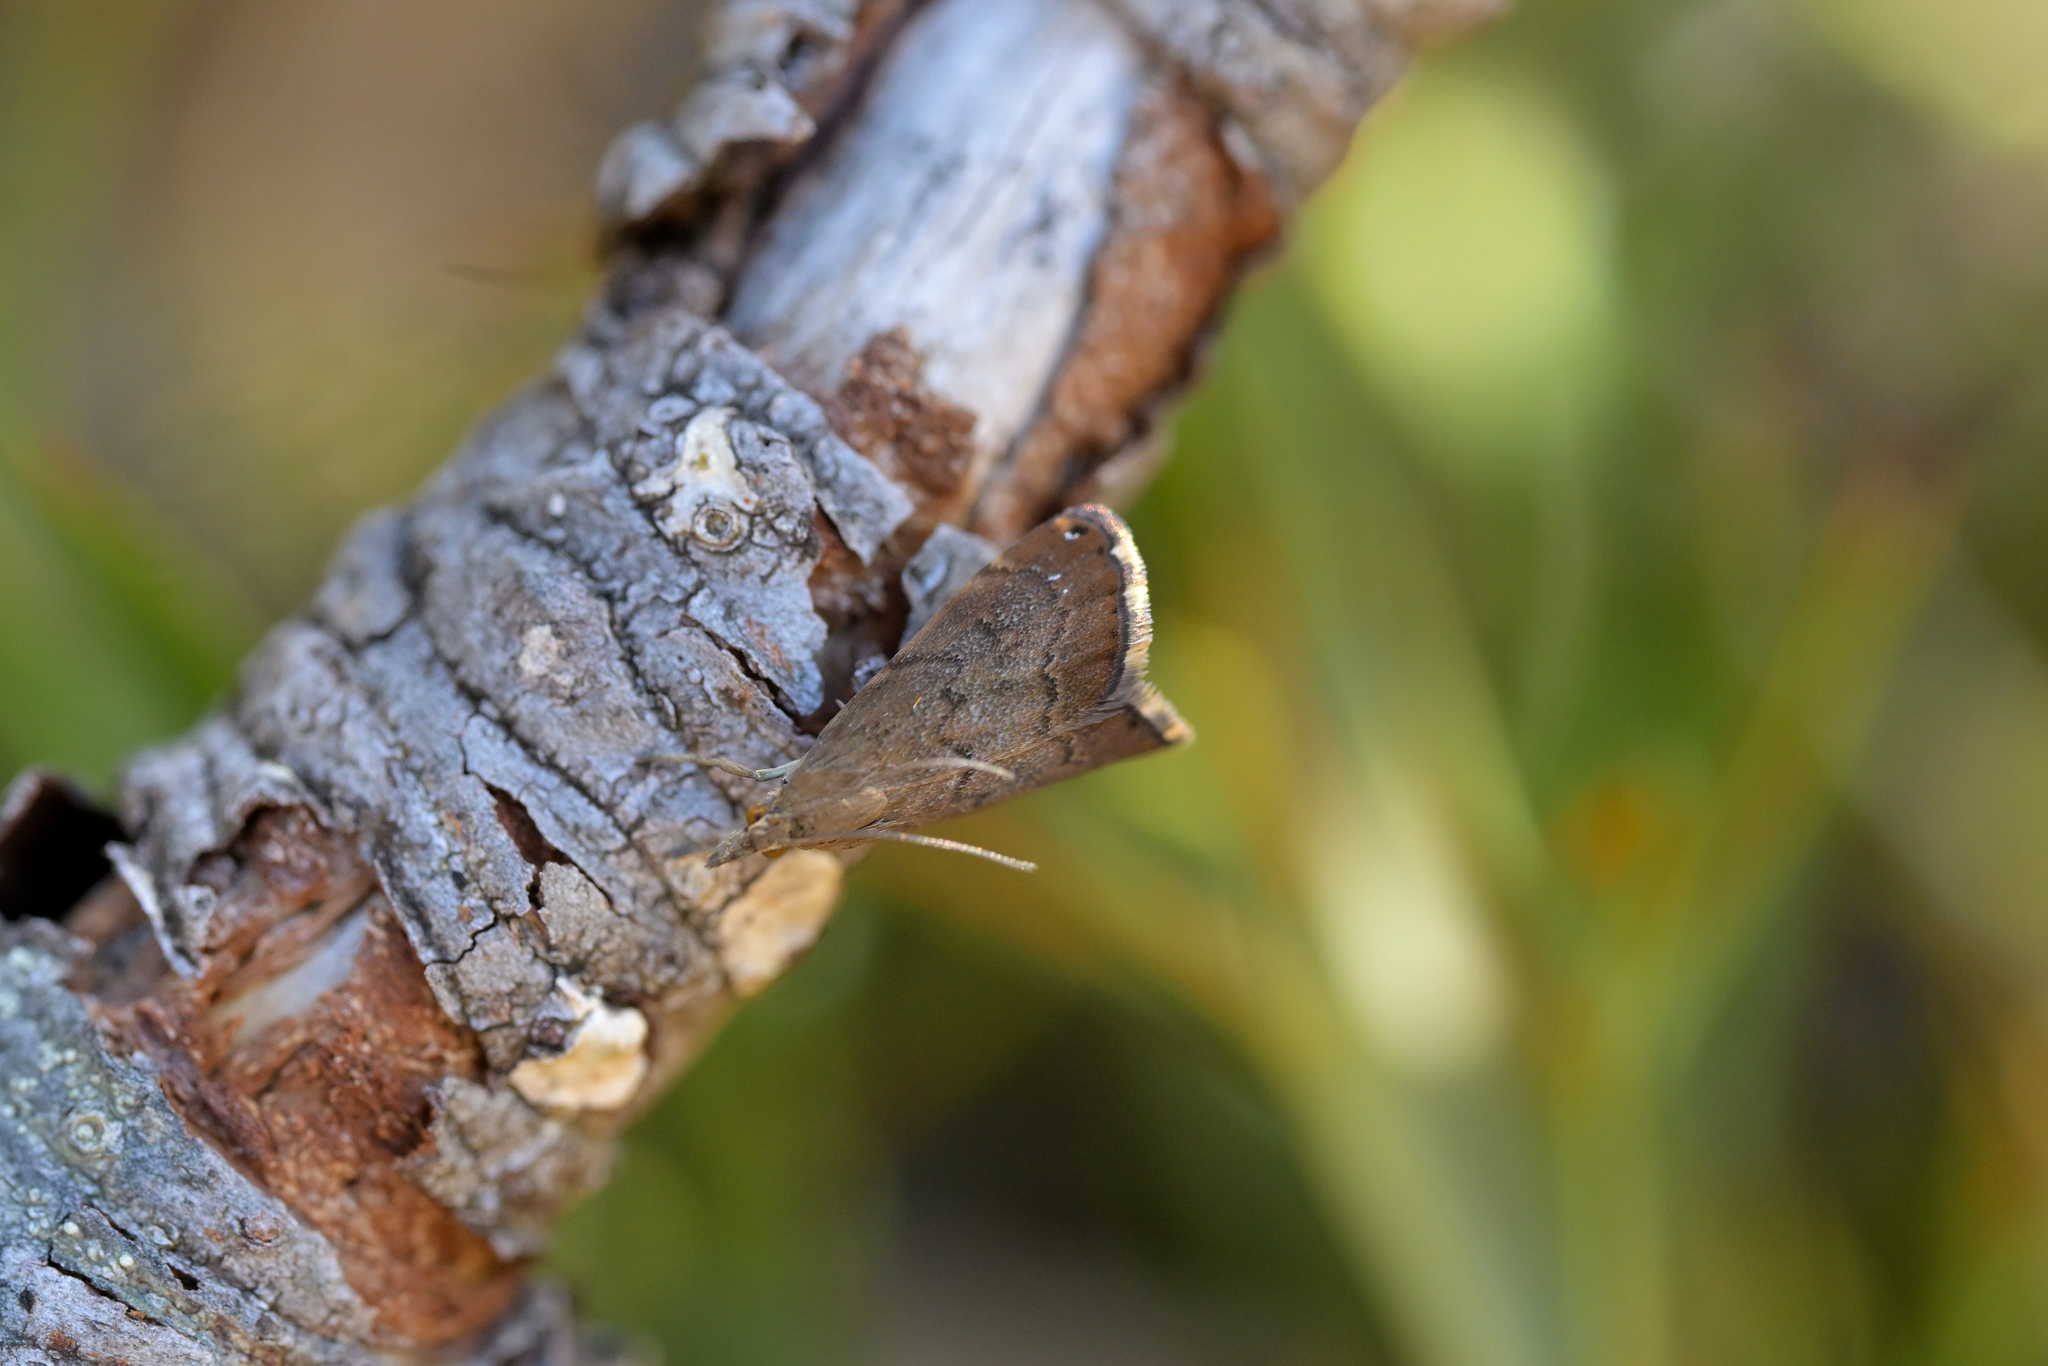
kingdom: Animalia
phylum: Arthropoda
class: Insecta
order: Lepidoptera
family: Crambidae
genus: Glaucocharis
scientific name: Glaucocharis epiphaea
